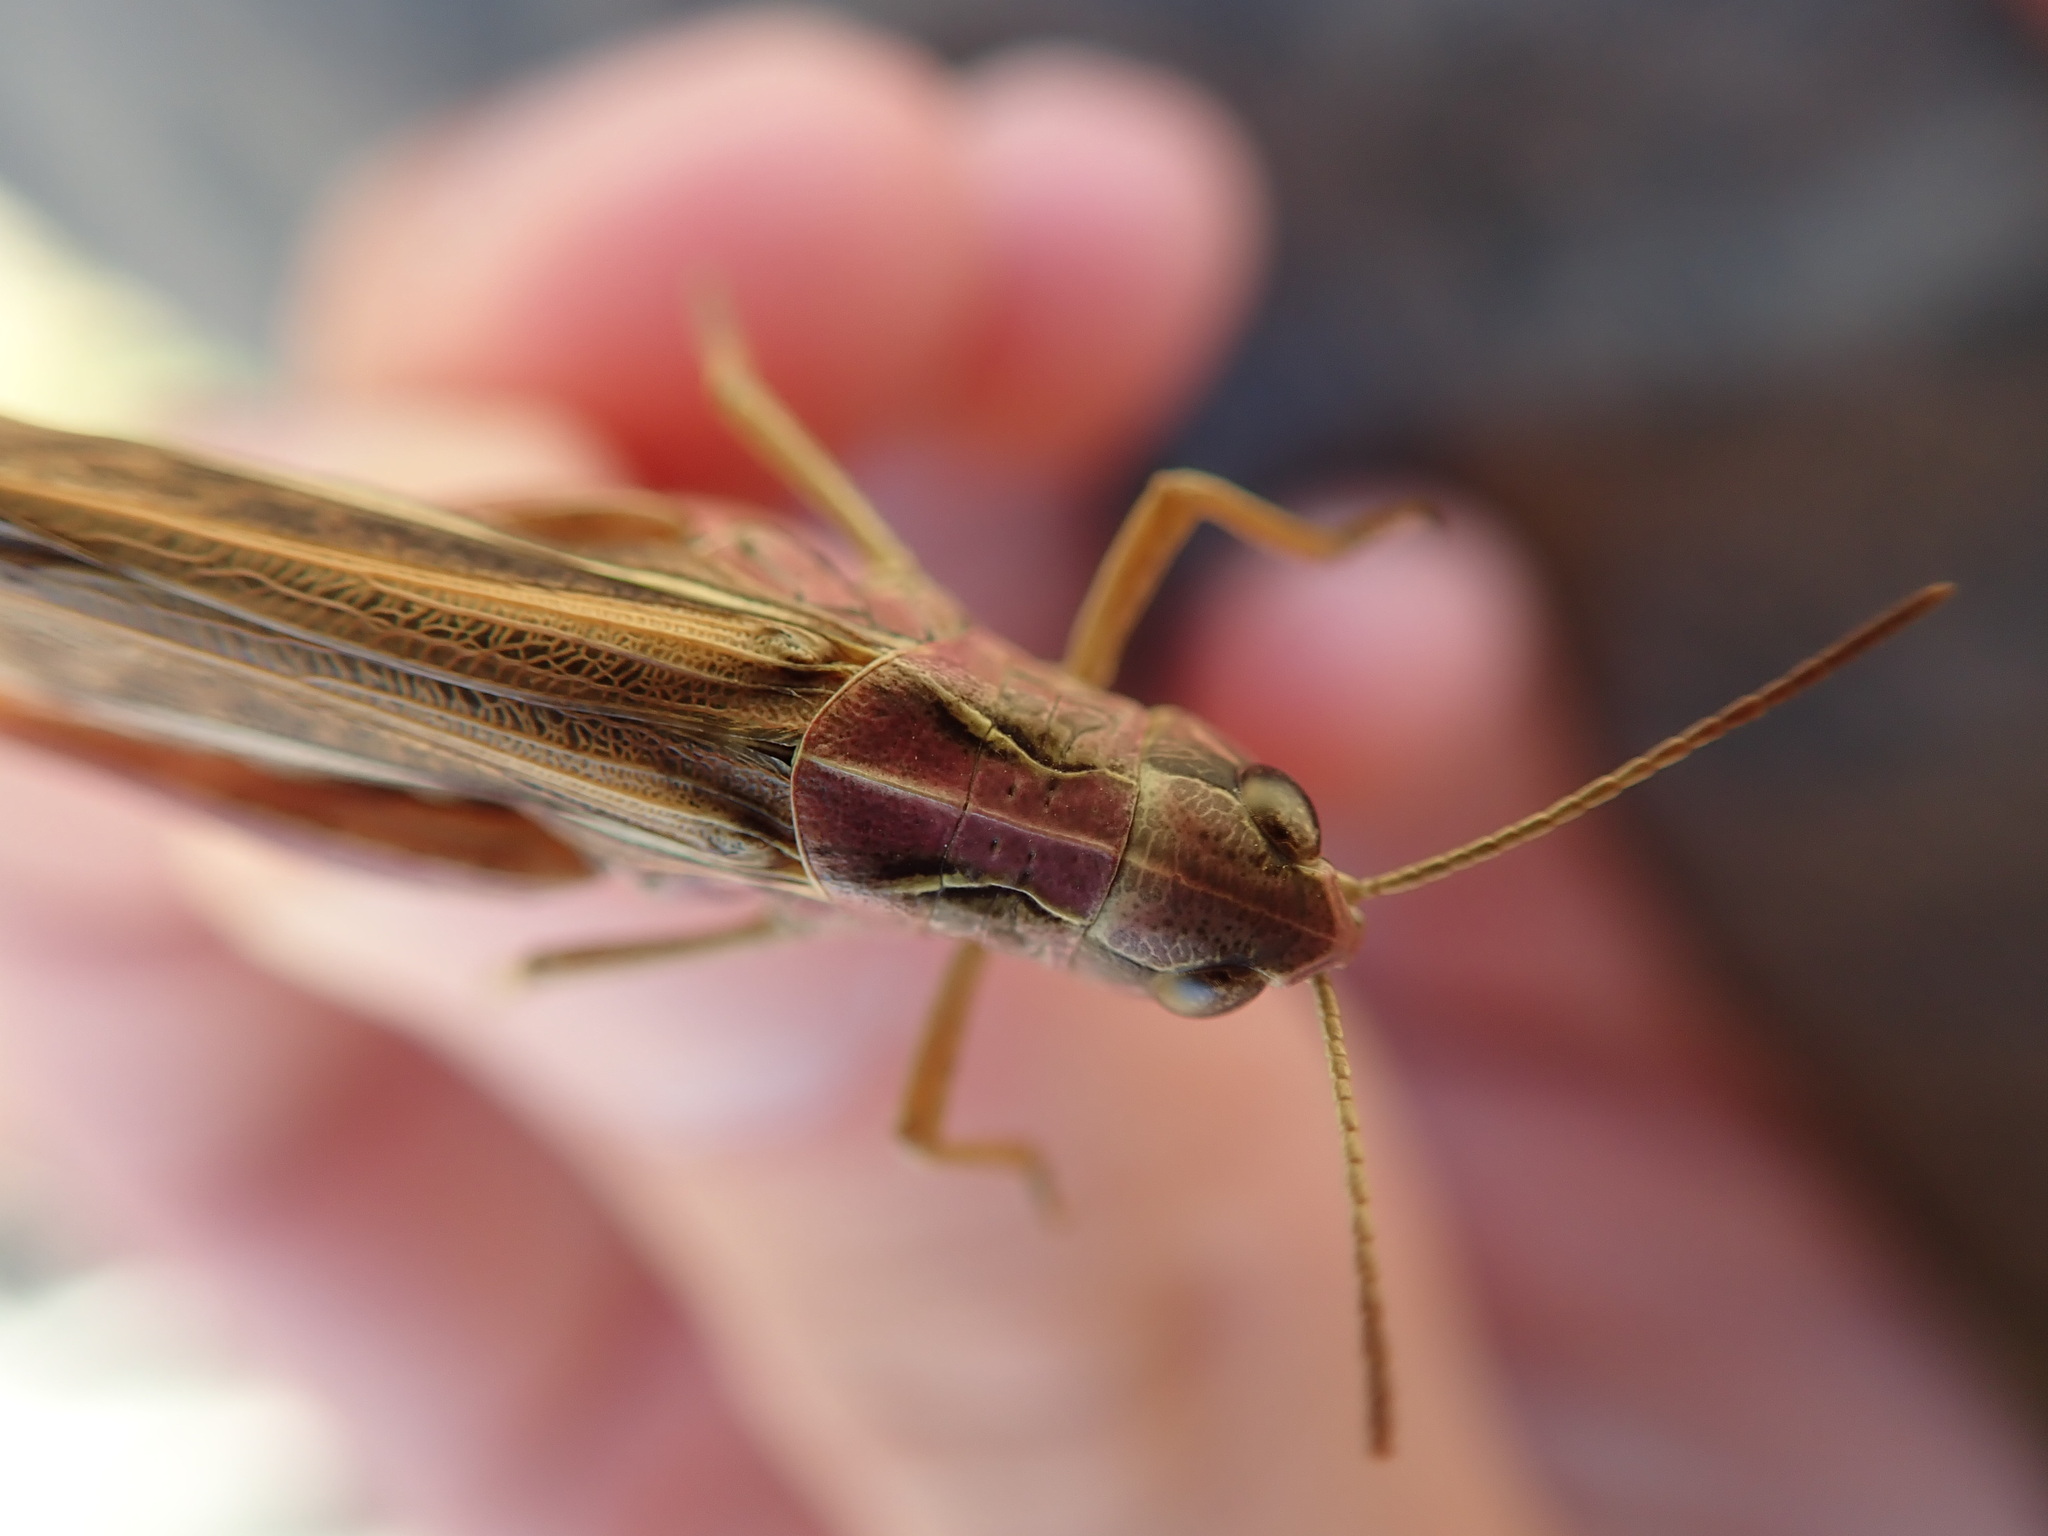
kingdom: Animalia
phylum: Arthropoda
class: Insecta
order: Orthoptera
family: Acrididae
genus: Stauroderus
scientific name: Stauroderus scalaris
